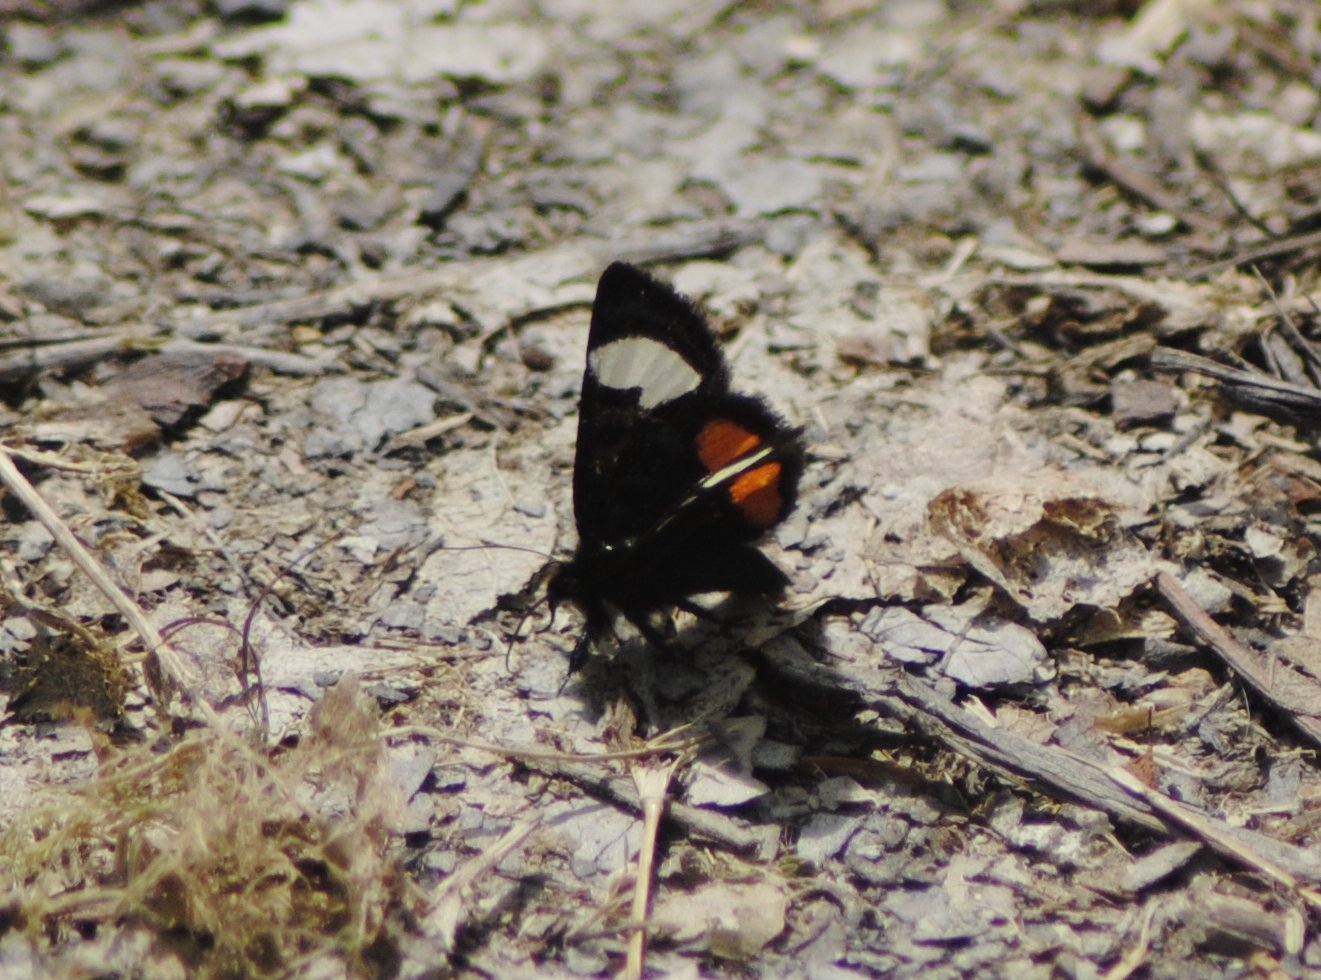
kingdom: Animalia
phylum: Arthropoda
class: Insecta
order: Lepidoptera
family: Noctuidae
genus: Psychomorpha
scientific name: Psychomorpha epimenis
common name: Grapevine epimenis moth
